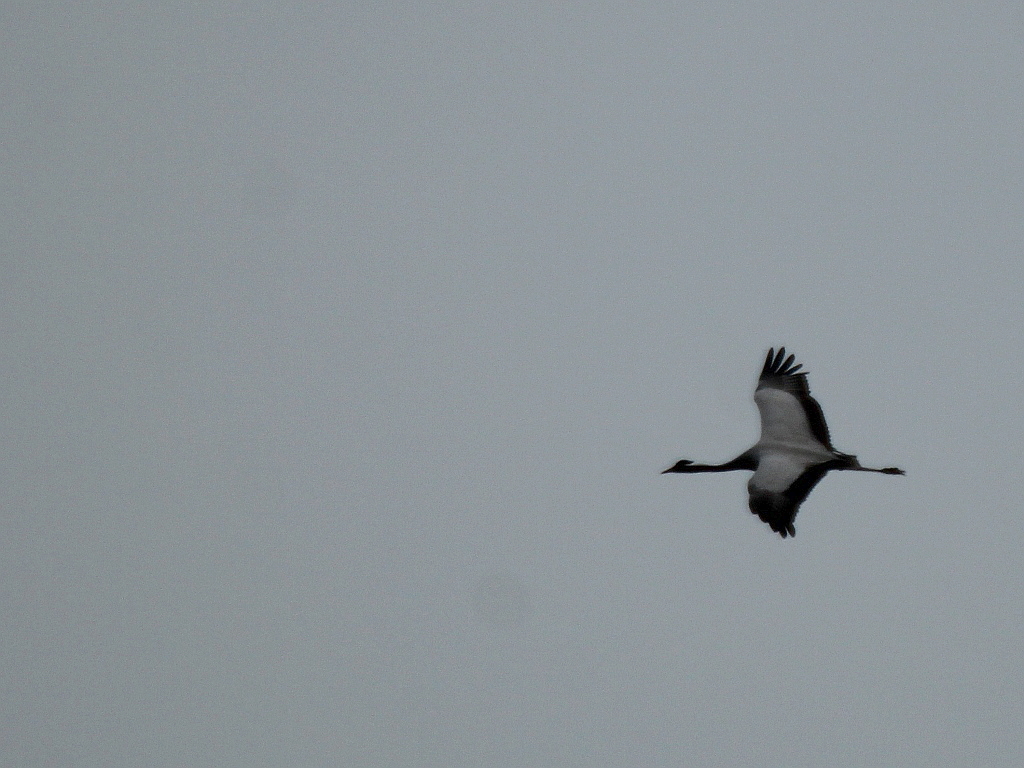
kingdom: Animalia
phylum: Chordata
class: Aves
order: Gruiformes
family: Gruidae
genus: Anthropoides
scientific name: Anthropoides virgo
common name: Demoiselle crane
